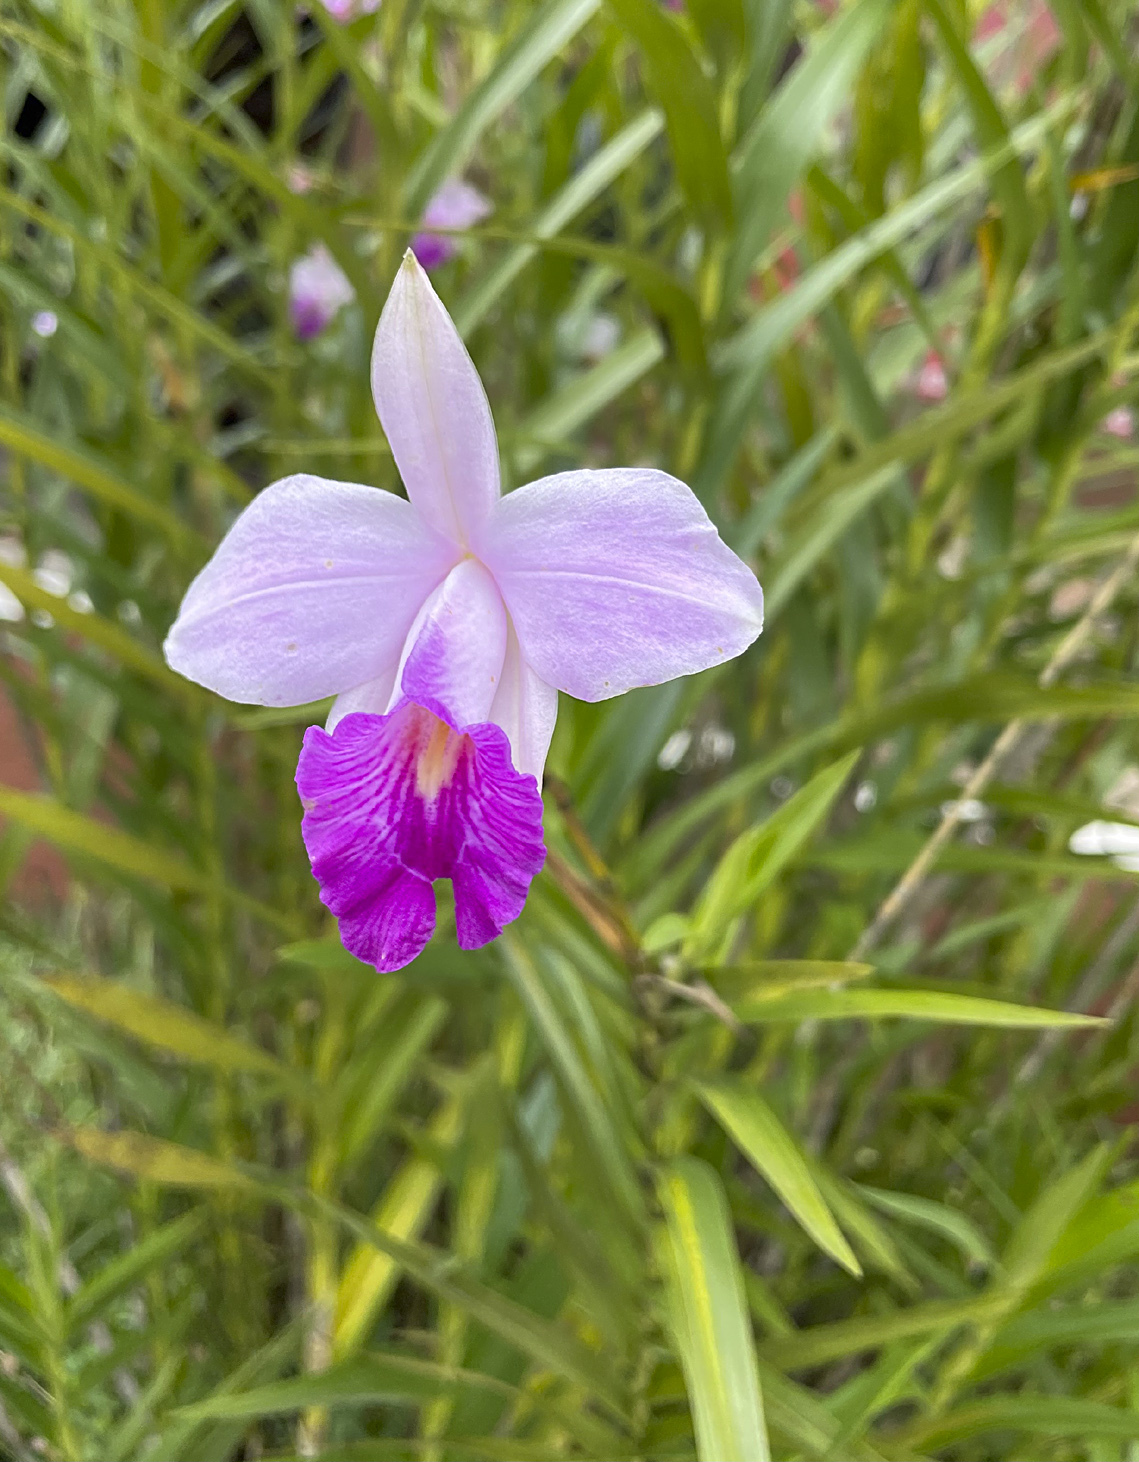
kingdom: Plantae
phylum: Tracheophyta
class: Liliopsida
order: Asparagales
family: Orchidaceae
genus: Arundina
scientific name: Arundina graminifolia
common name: Bamboo orchid
